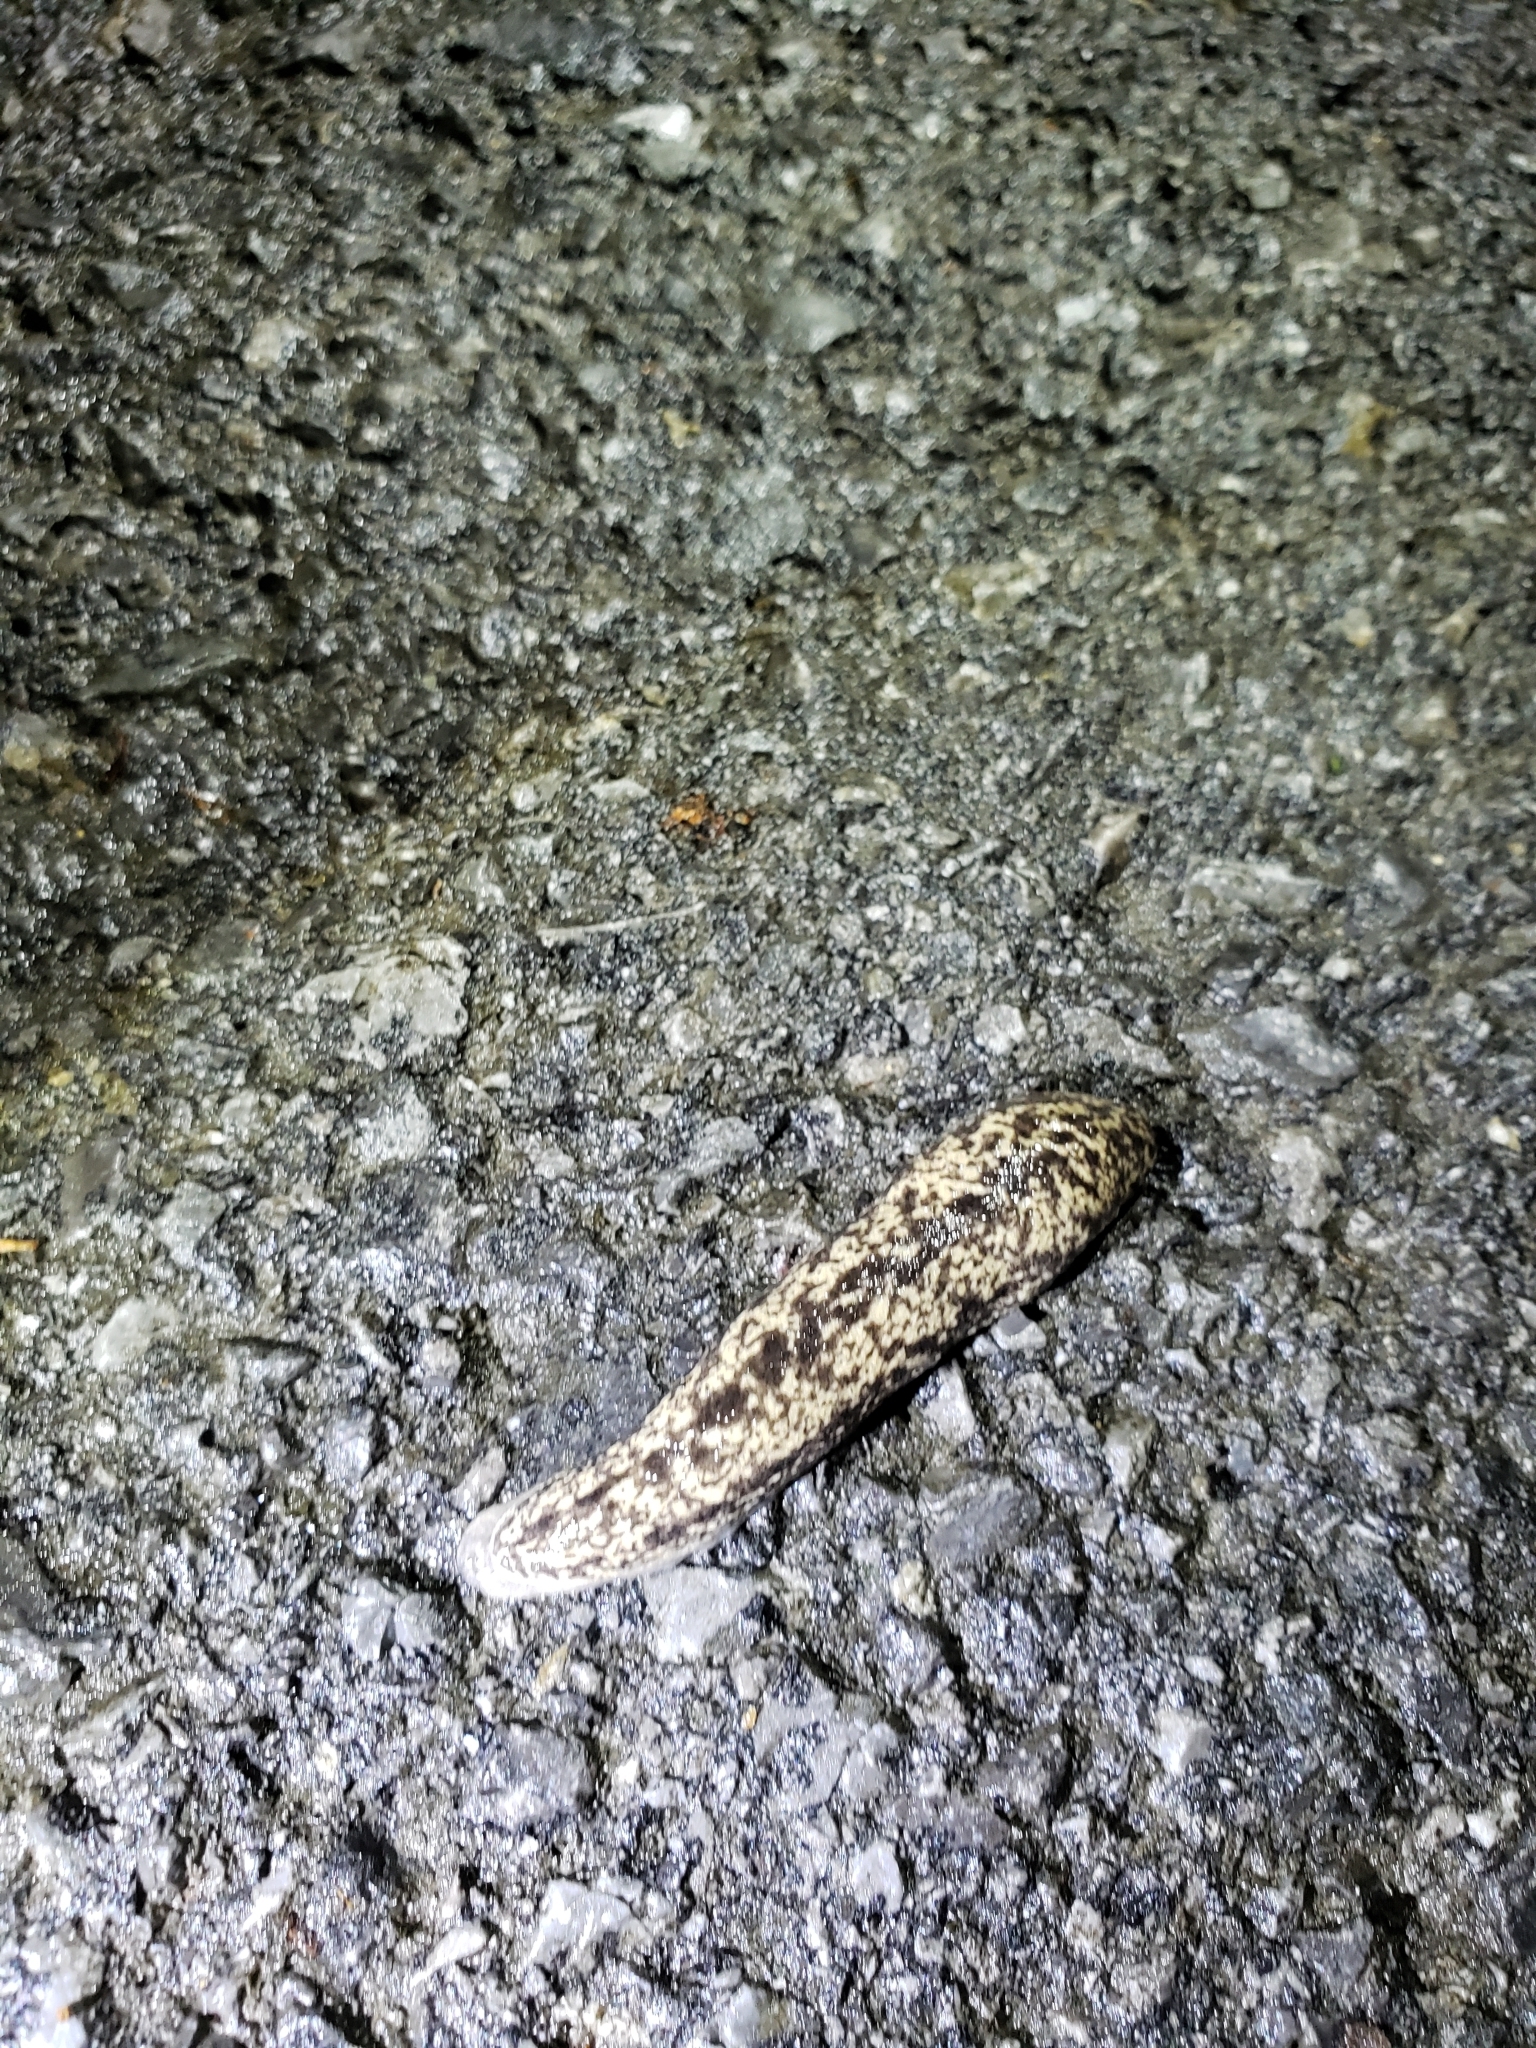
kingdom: Animalia
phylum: Mollusca
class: Gastropoda
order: Stylommatophora
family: Philomycidae
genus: Philomycus
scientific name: Philomycus flexuolaris
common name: Winding mantleslug
